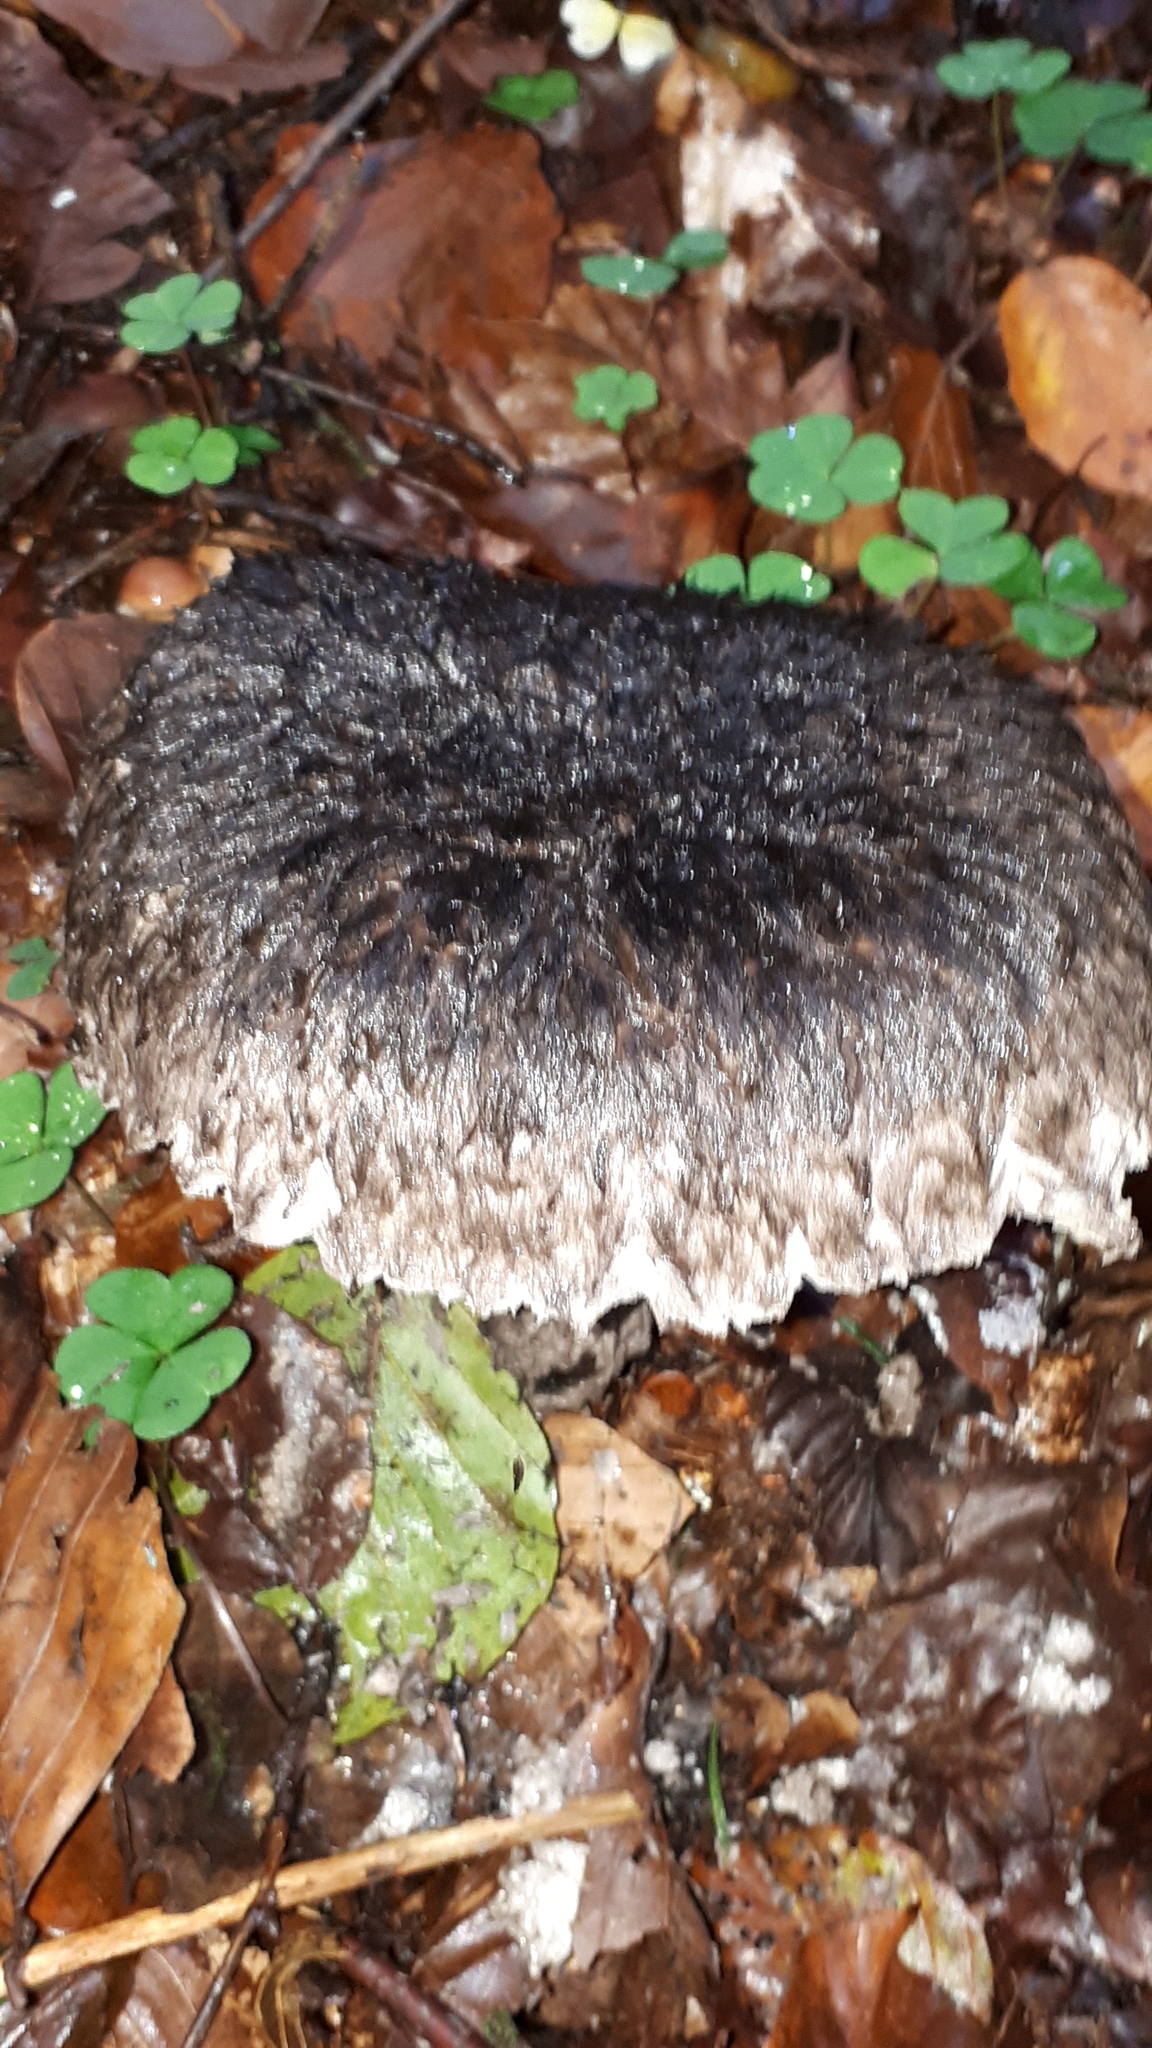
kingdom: Fungi
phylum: Basidiomycota
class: Agaricomycetes
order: Boletales
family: Boletaceae
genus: Strobilomyces
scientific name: Strobilomyces strobilaceus
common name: Old man of the woods
